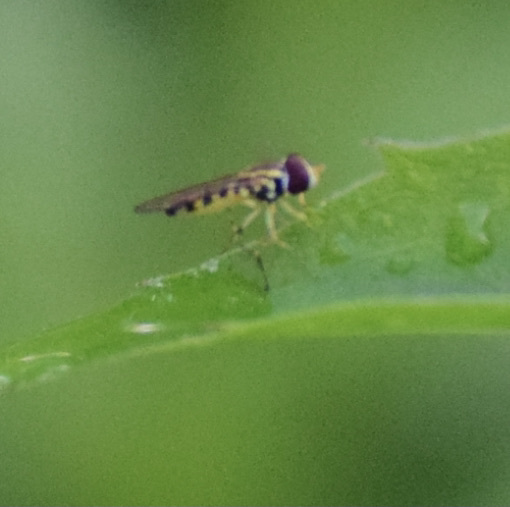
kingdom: Animalia
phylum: Arthropoda
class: Insecta
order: Diptera
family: Syrphidae
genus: Toxomerus
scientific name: Toxomerus geminatus
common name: Eastern calligrapher
